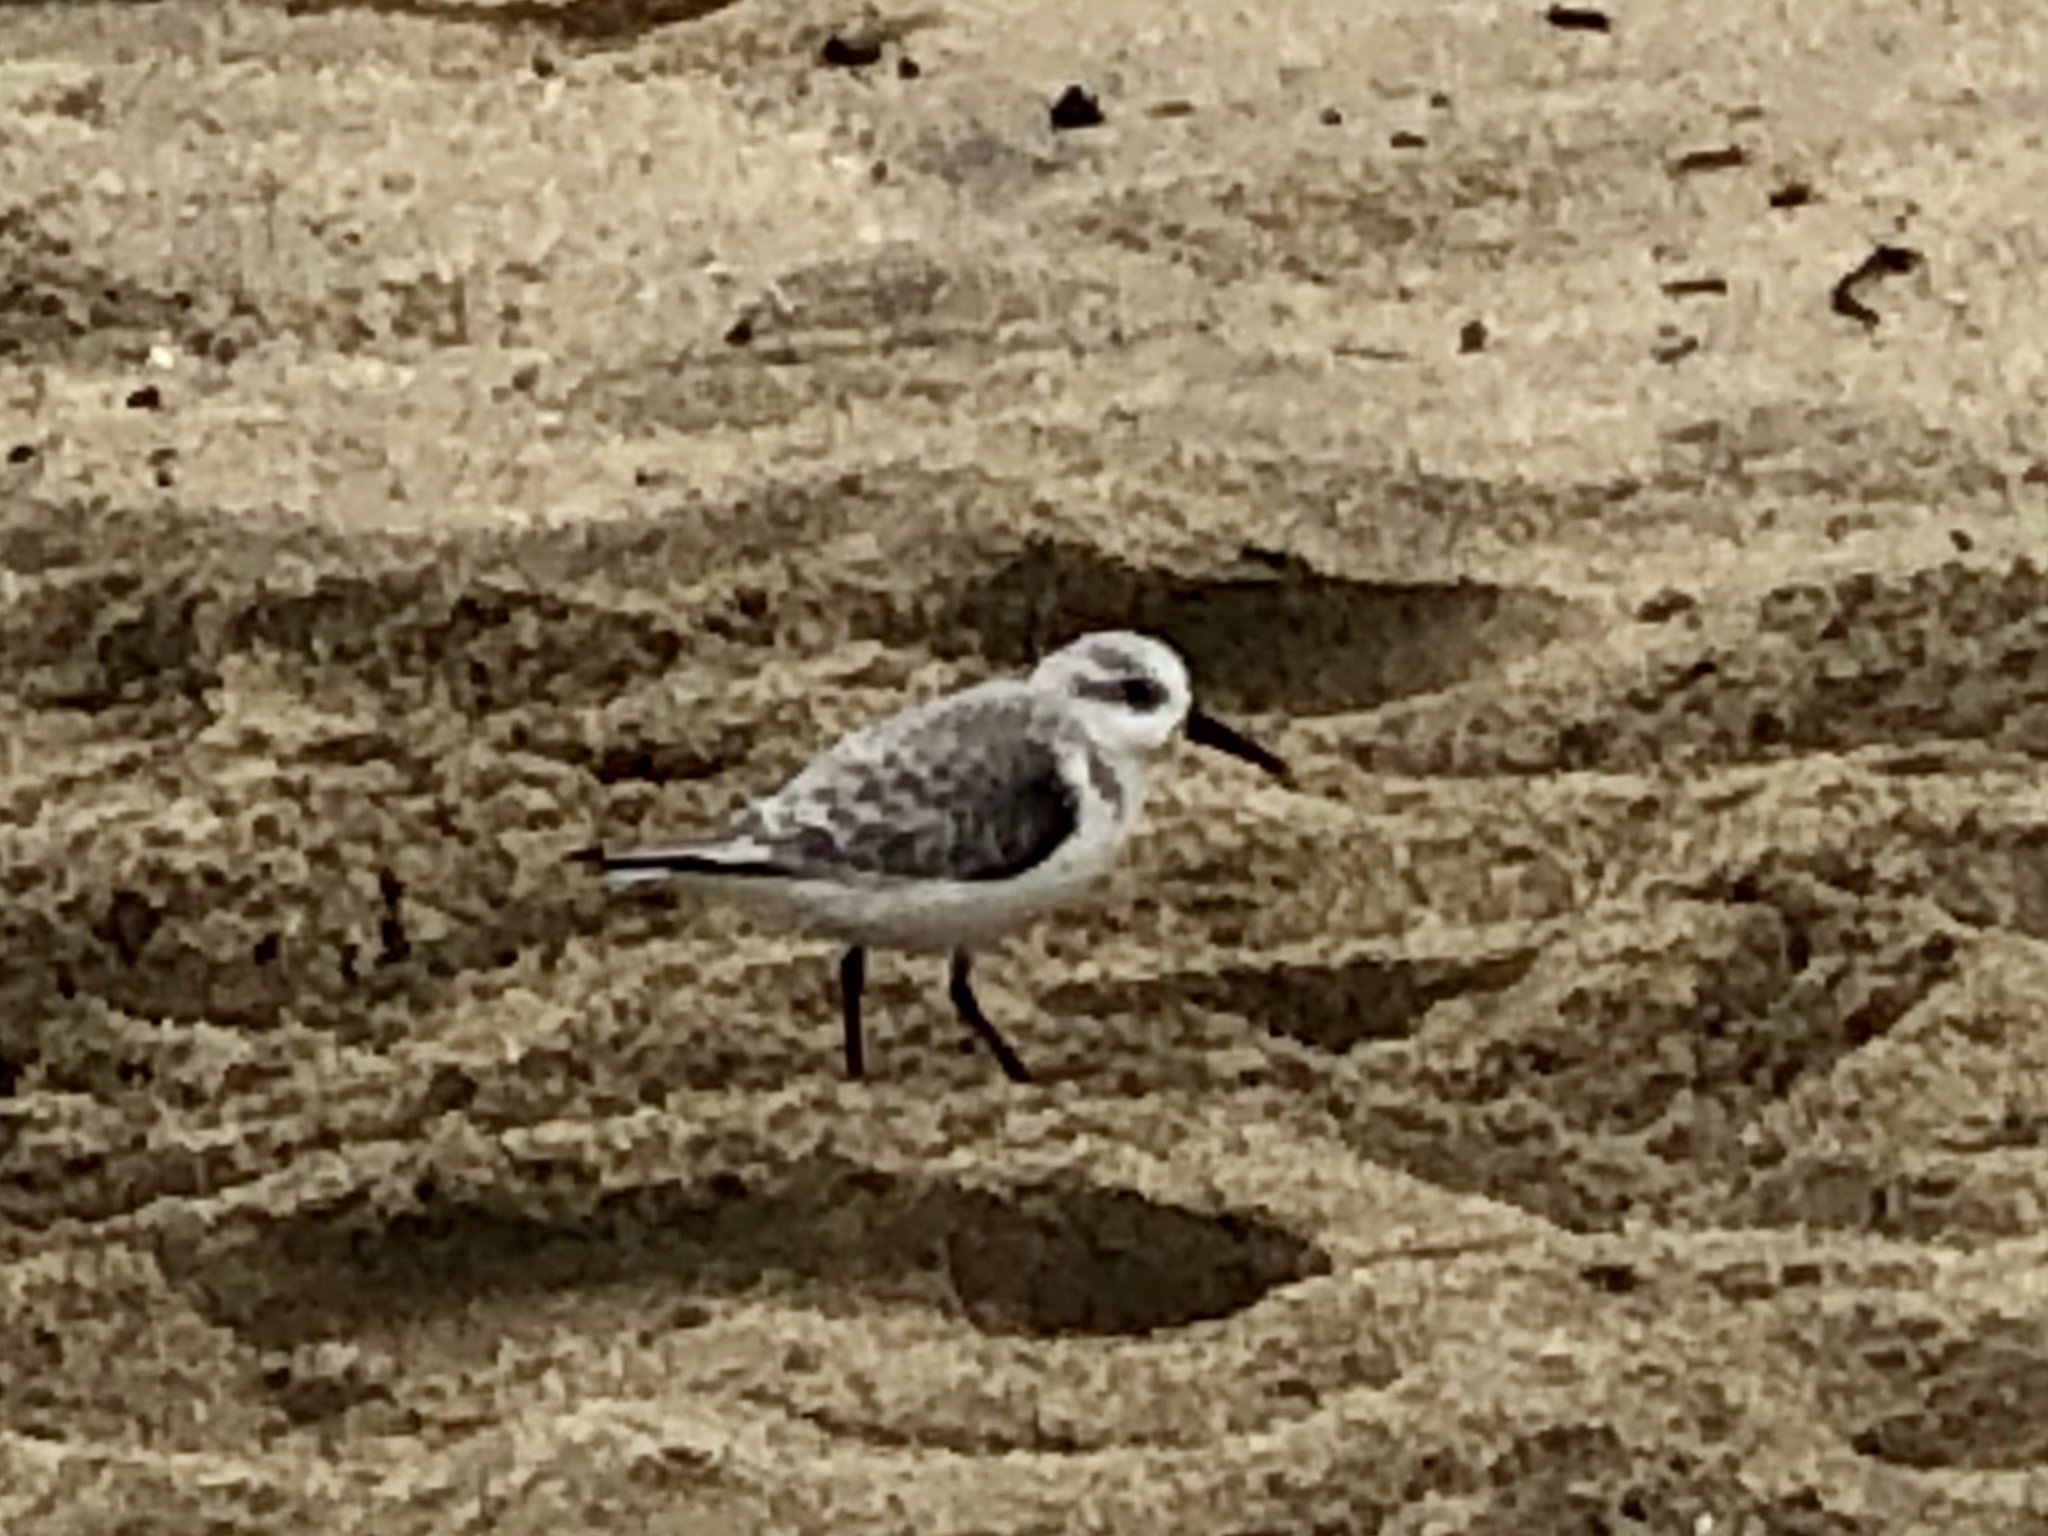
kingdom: Animalia
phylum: Chordata
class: Aves
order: Charadriiformes
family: Scolopacidae
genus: Calidris
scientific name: Calidris alba
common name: Sanderling
